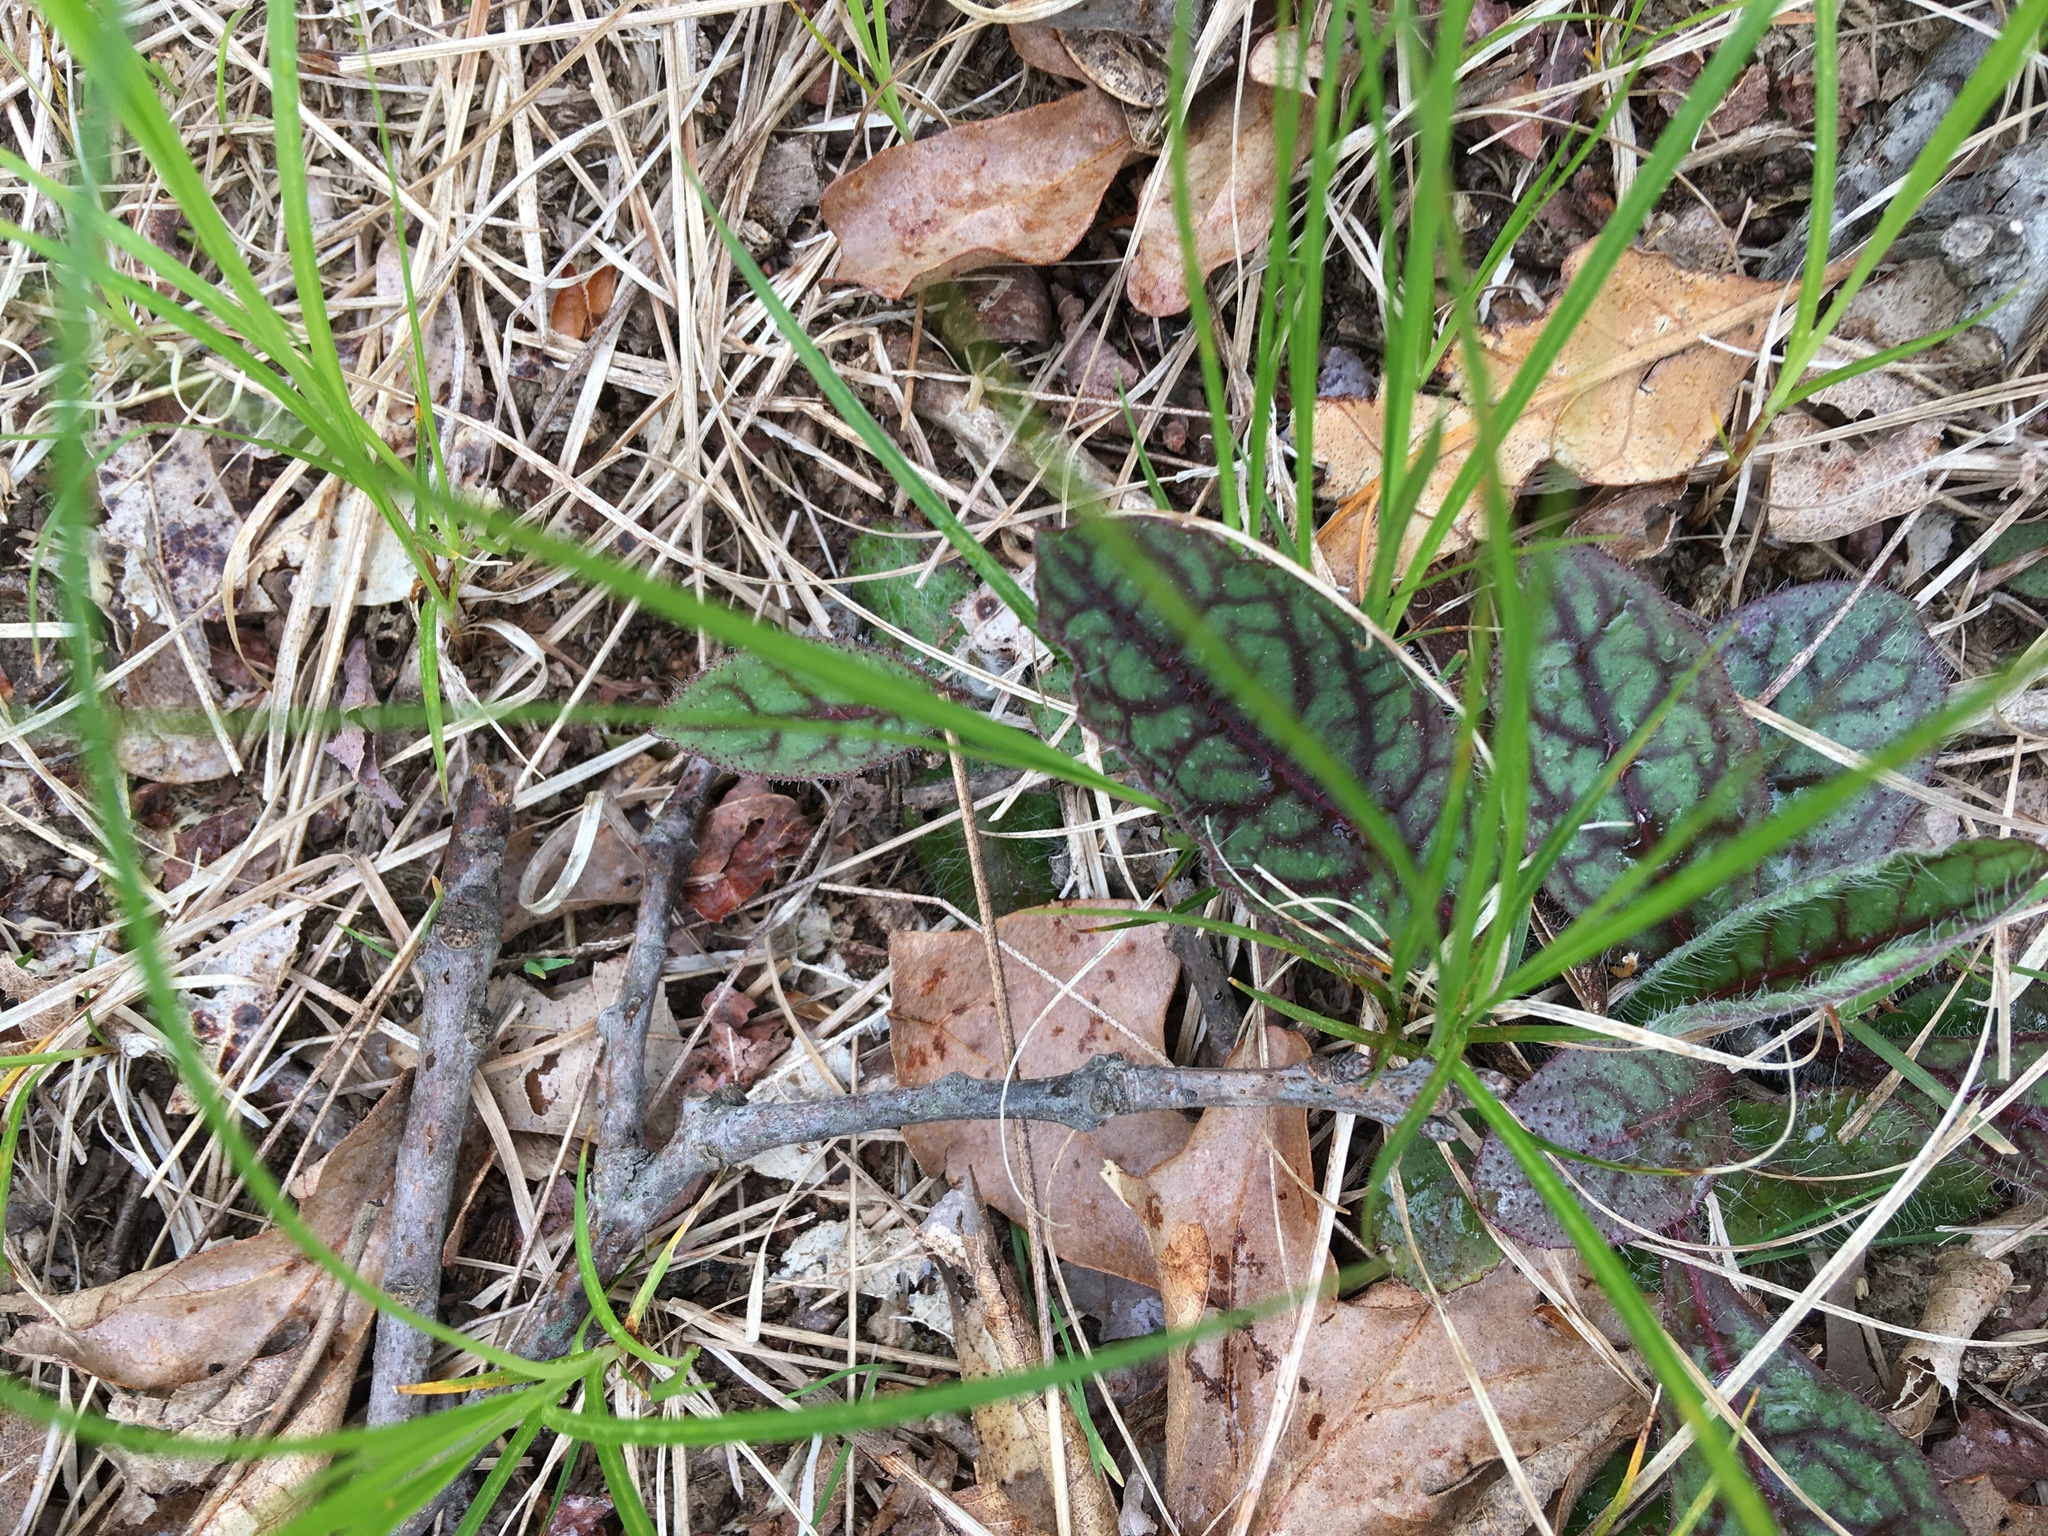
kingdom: Plantae
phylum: Tracheophyta
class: Magnoliopsida
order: Asterales
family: Asteraceae
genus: Hieracium
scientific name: Hieracium venosum
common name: Rattlesnake hawkweed
